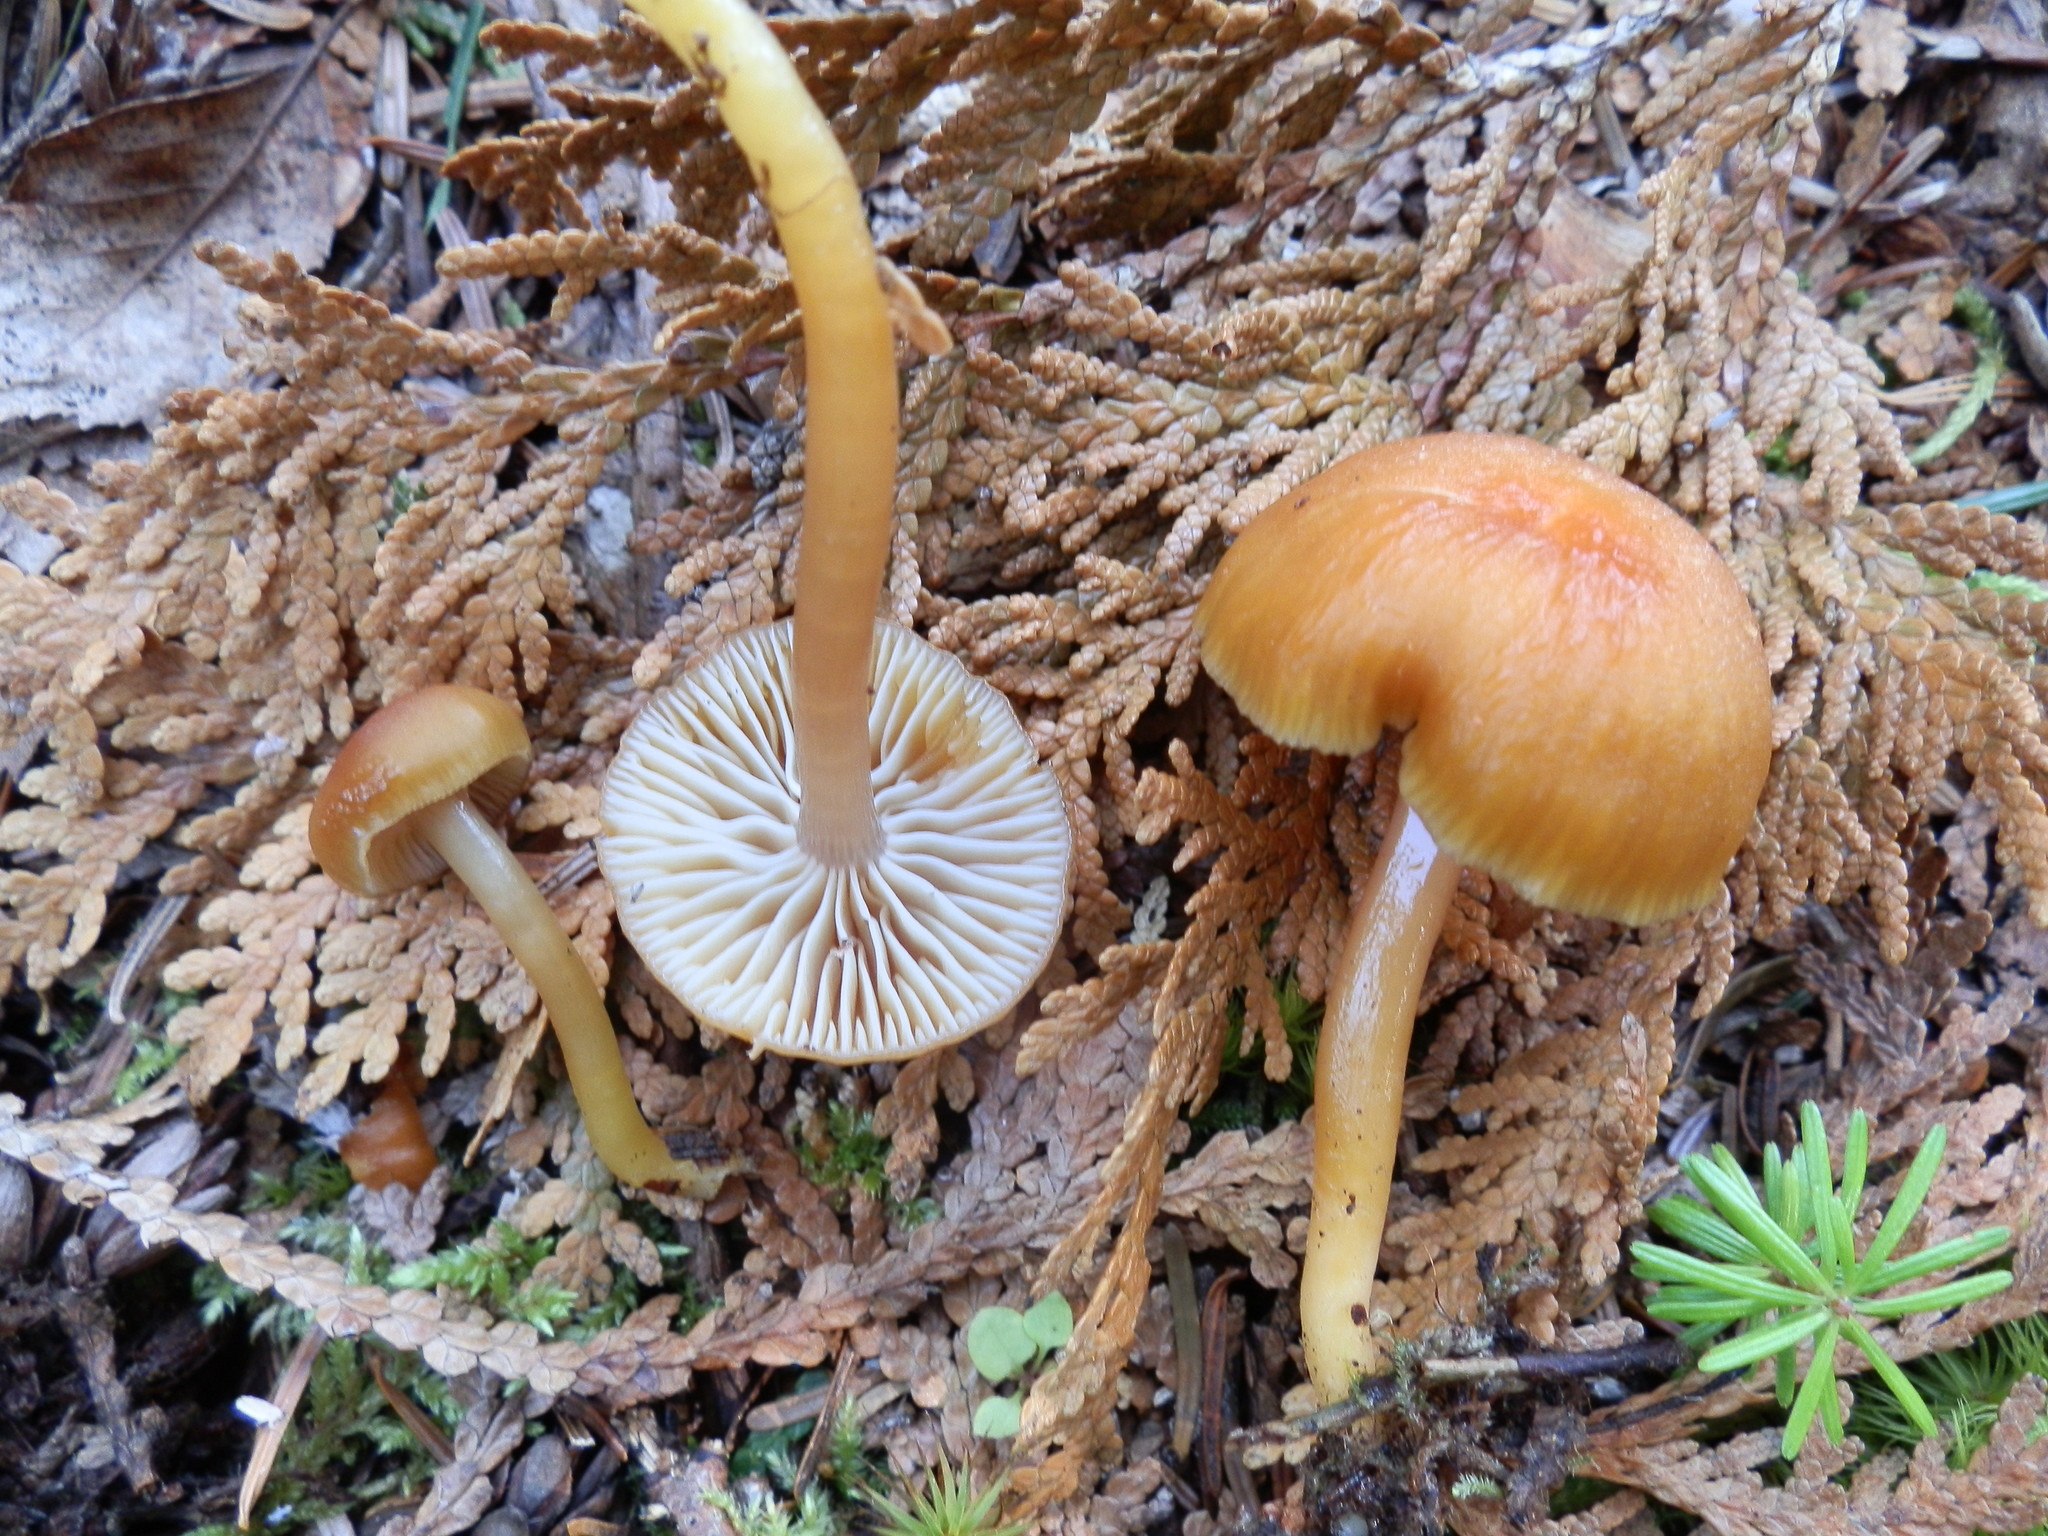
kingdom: Fungi
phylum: Basidiomycota
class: Agaricomycetes
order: Agaricales
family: Hygrophoraceae
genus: Gliophorus
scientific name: Gliophorus laetus
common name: Heath waxcap
